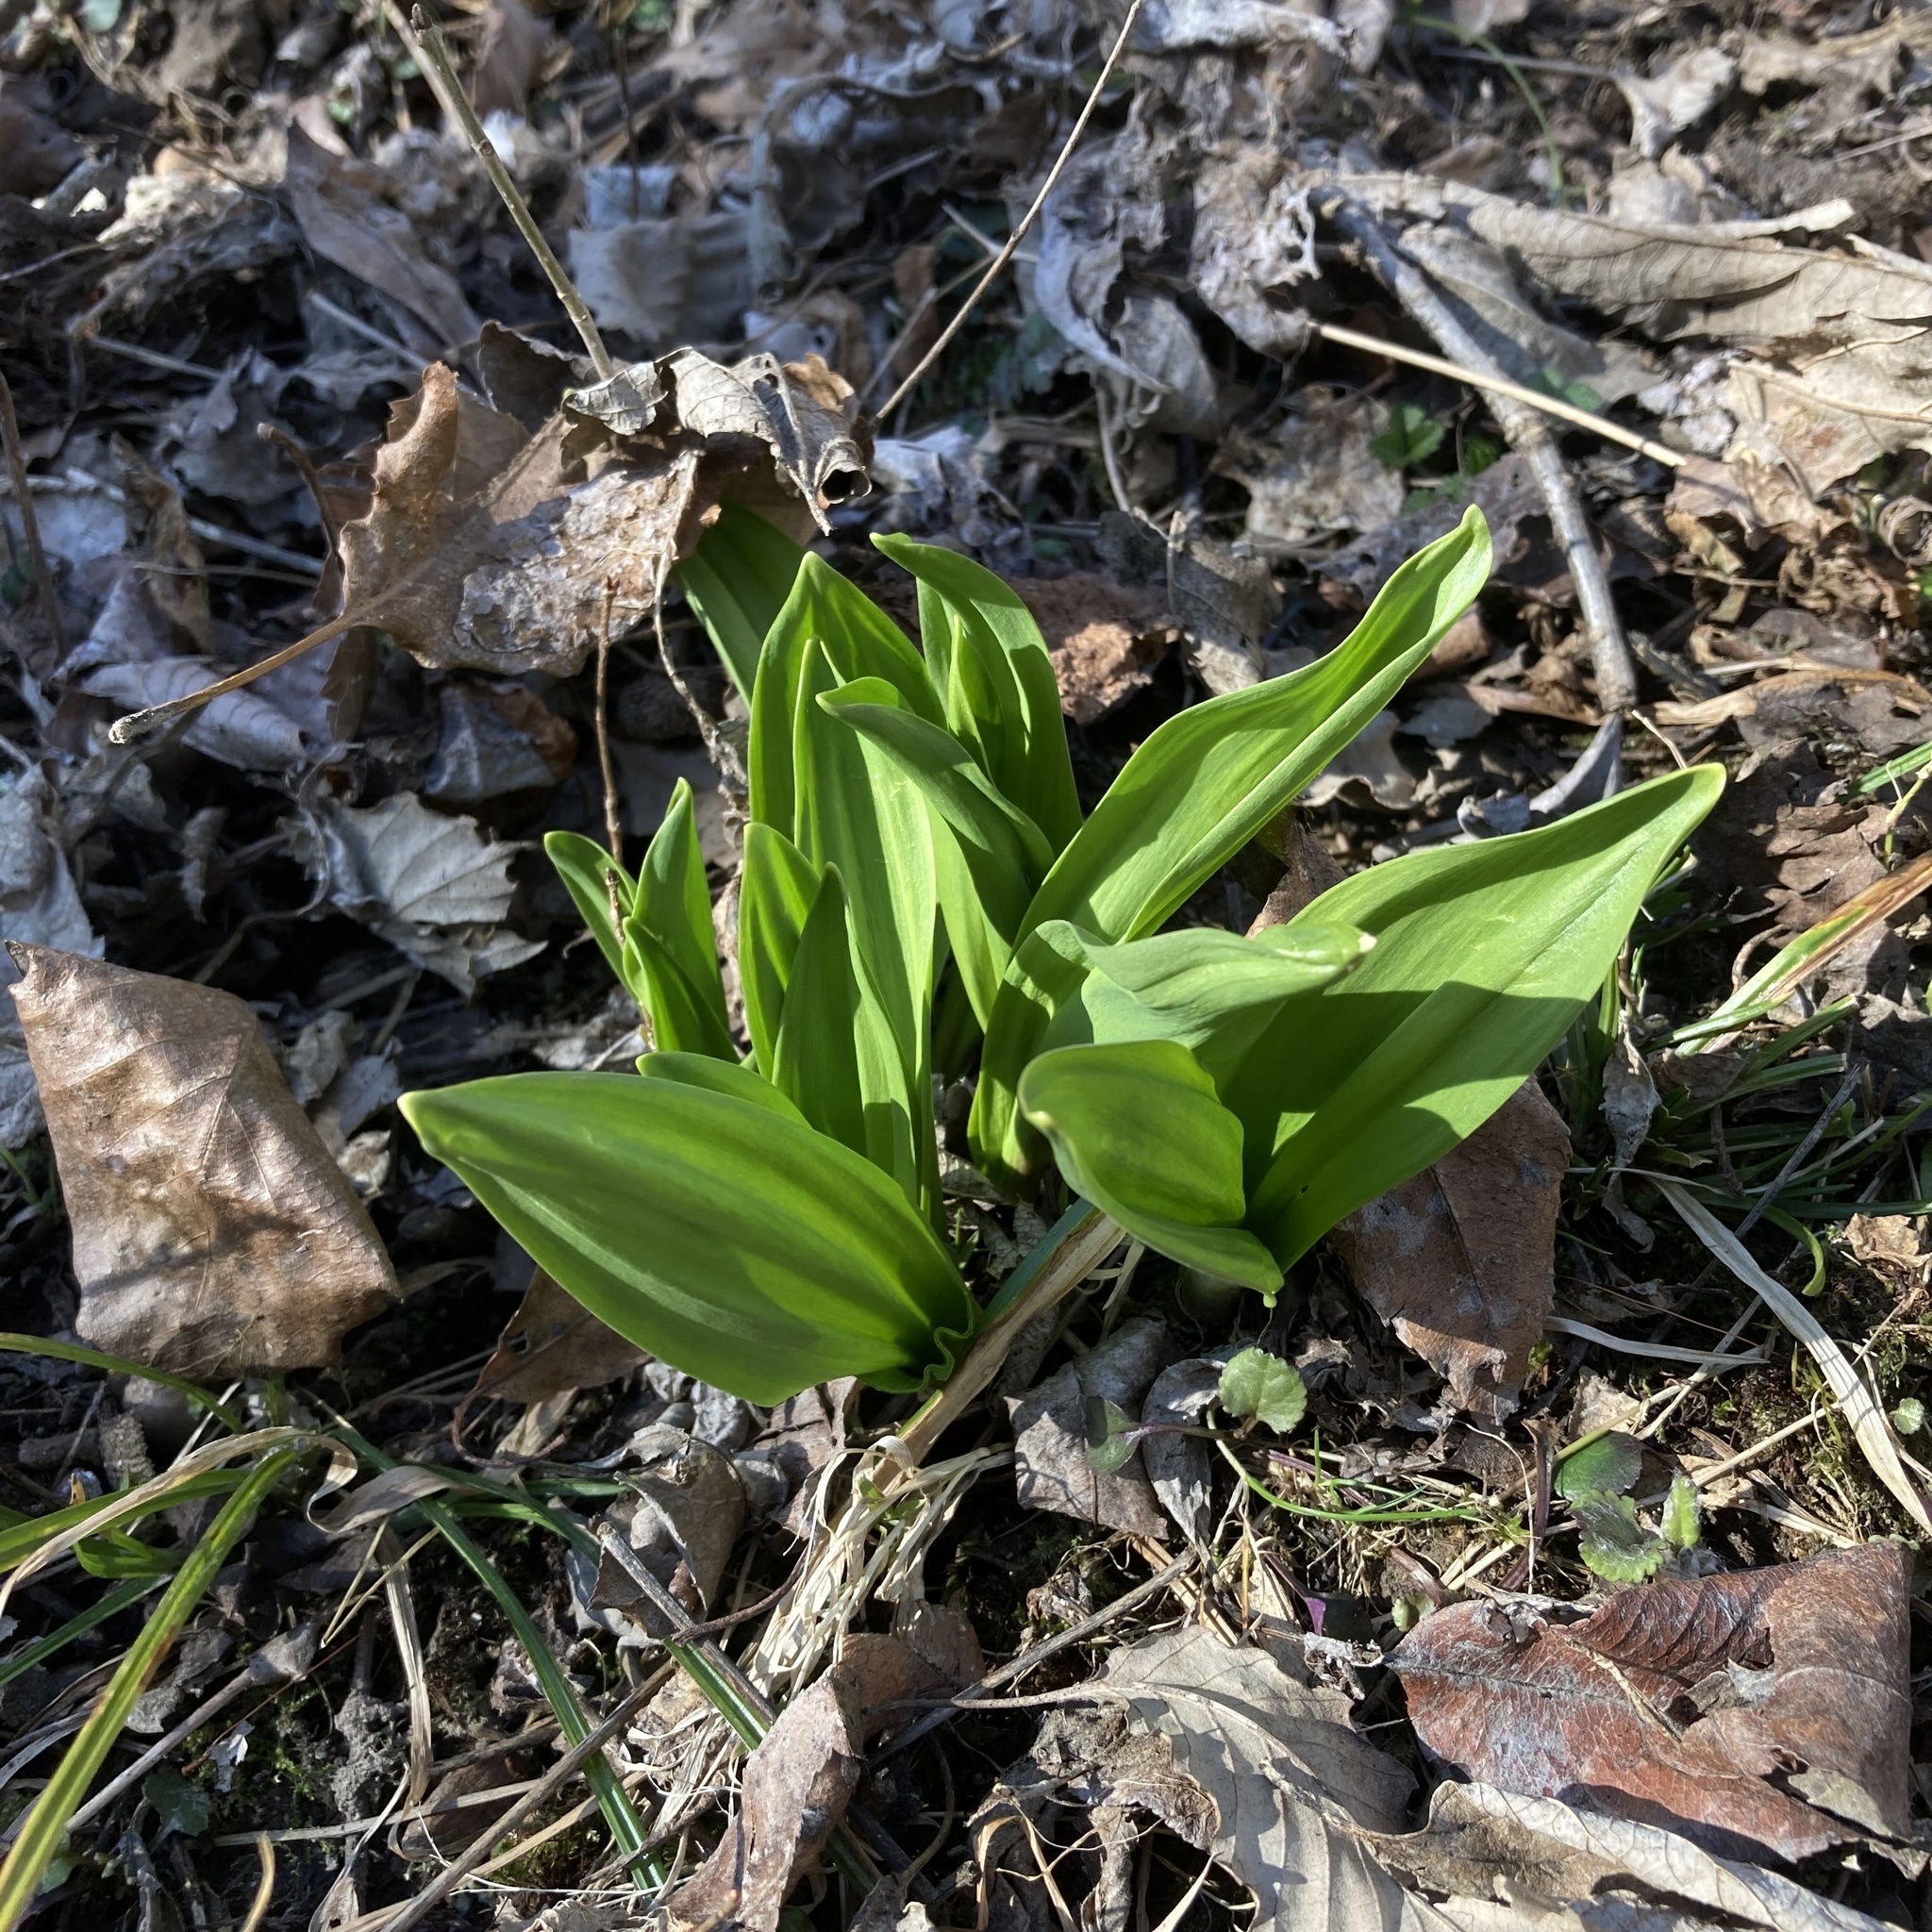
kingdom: Plantae
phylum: Tracheophyta
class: Liliopsida
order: Asparagales
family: Amaryllidaceae
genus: Allium
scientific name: Allium tricoccum
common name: Ramp
